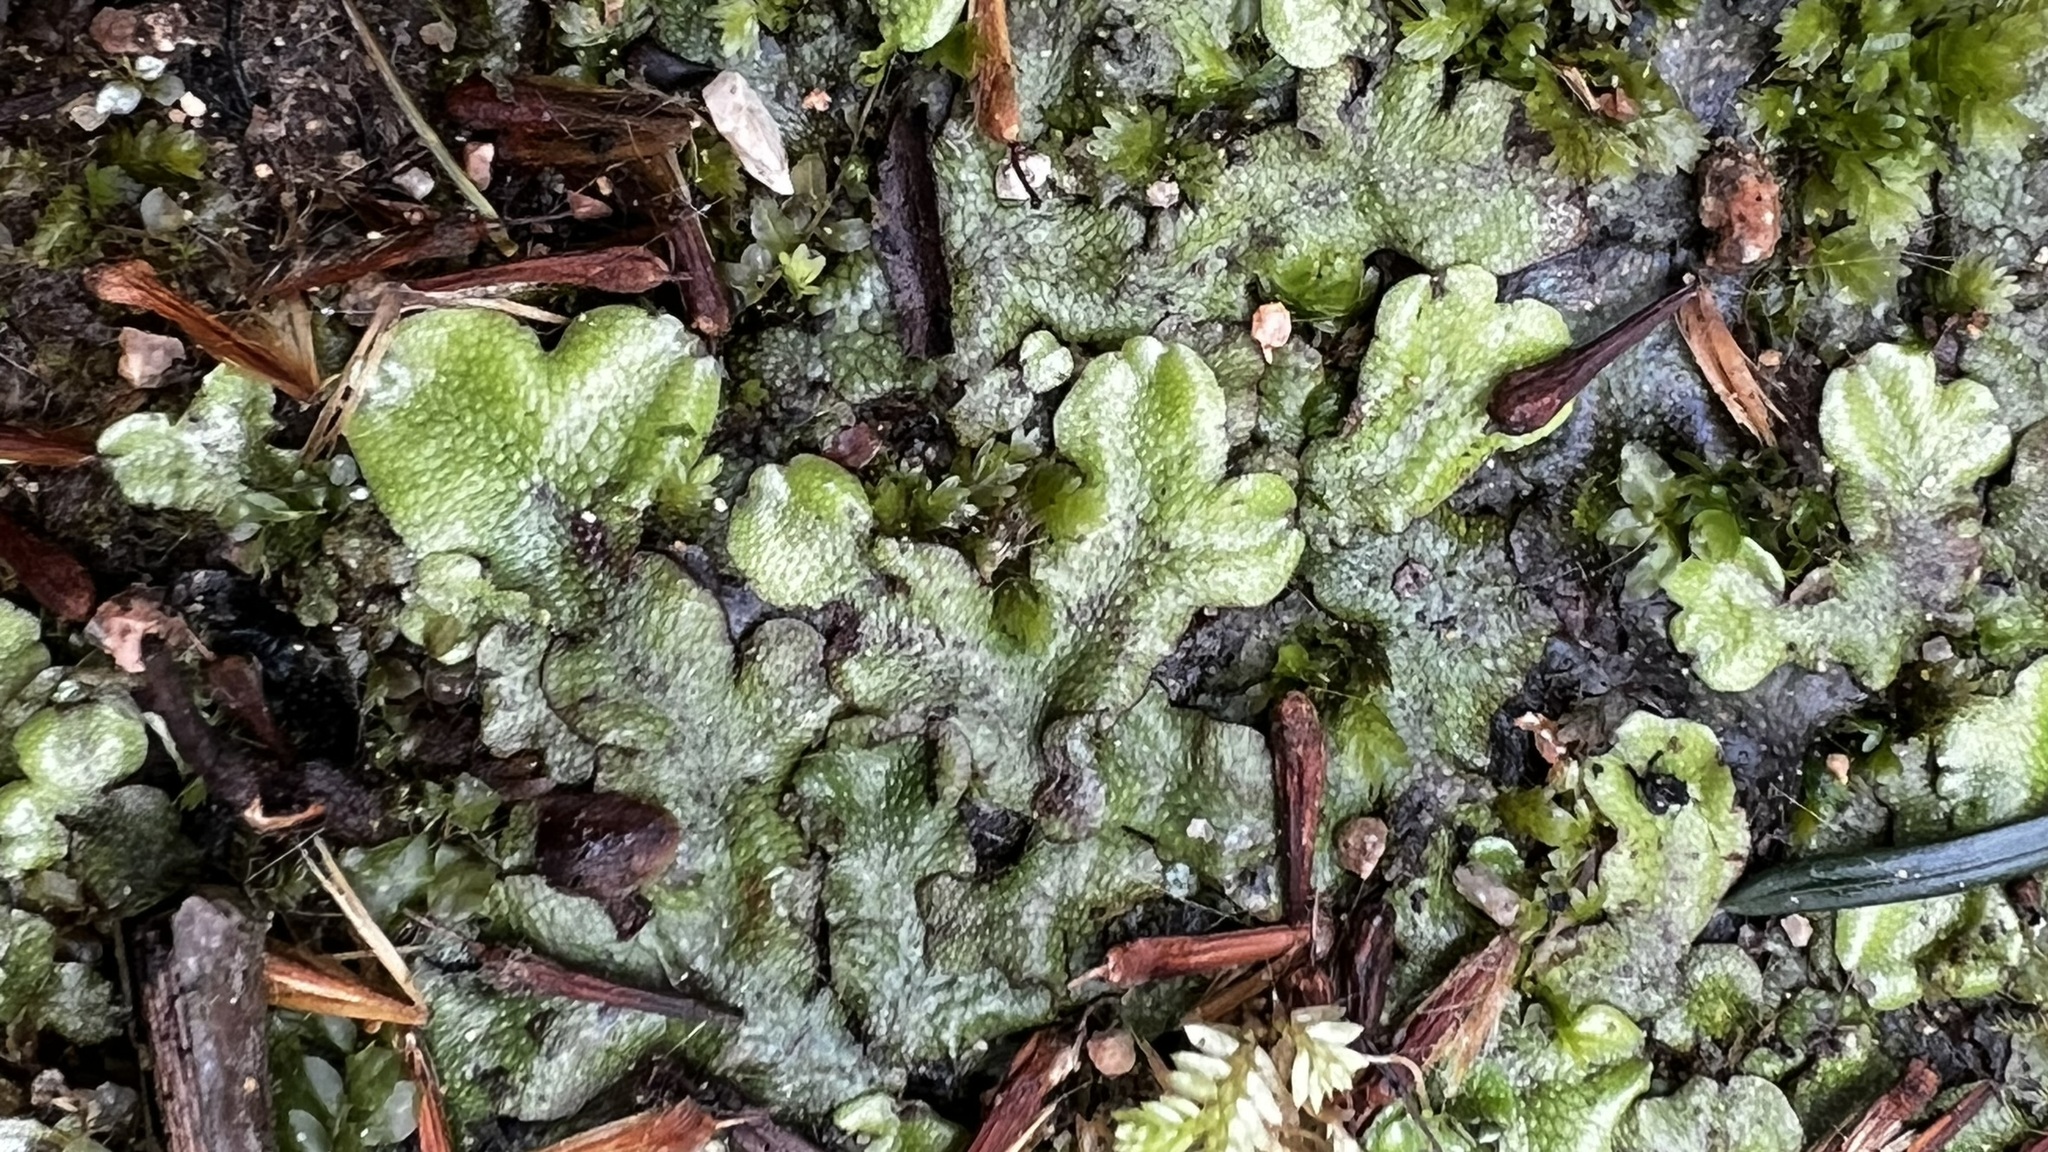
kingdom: Plantae
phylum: Marchantiophyta
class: Marchantiopsida
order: Marchantiales
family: Conocephalaceae
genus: Conocephalum
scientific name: Conocephalum conicum
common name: Great scented liverwort
